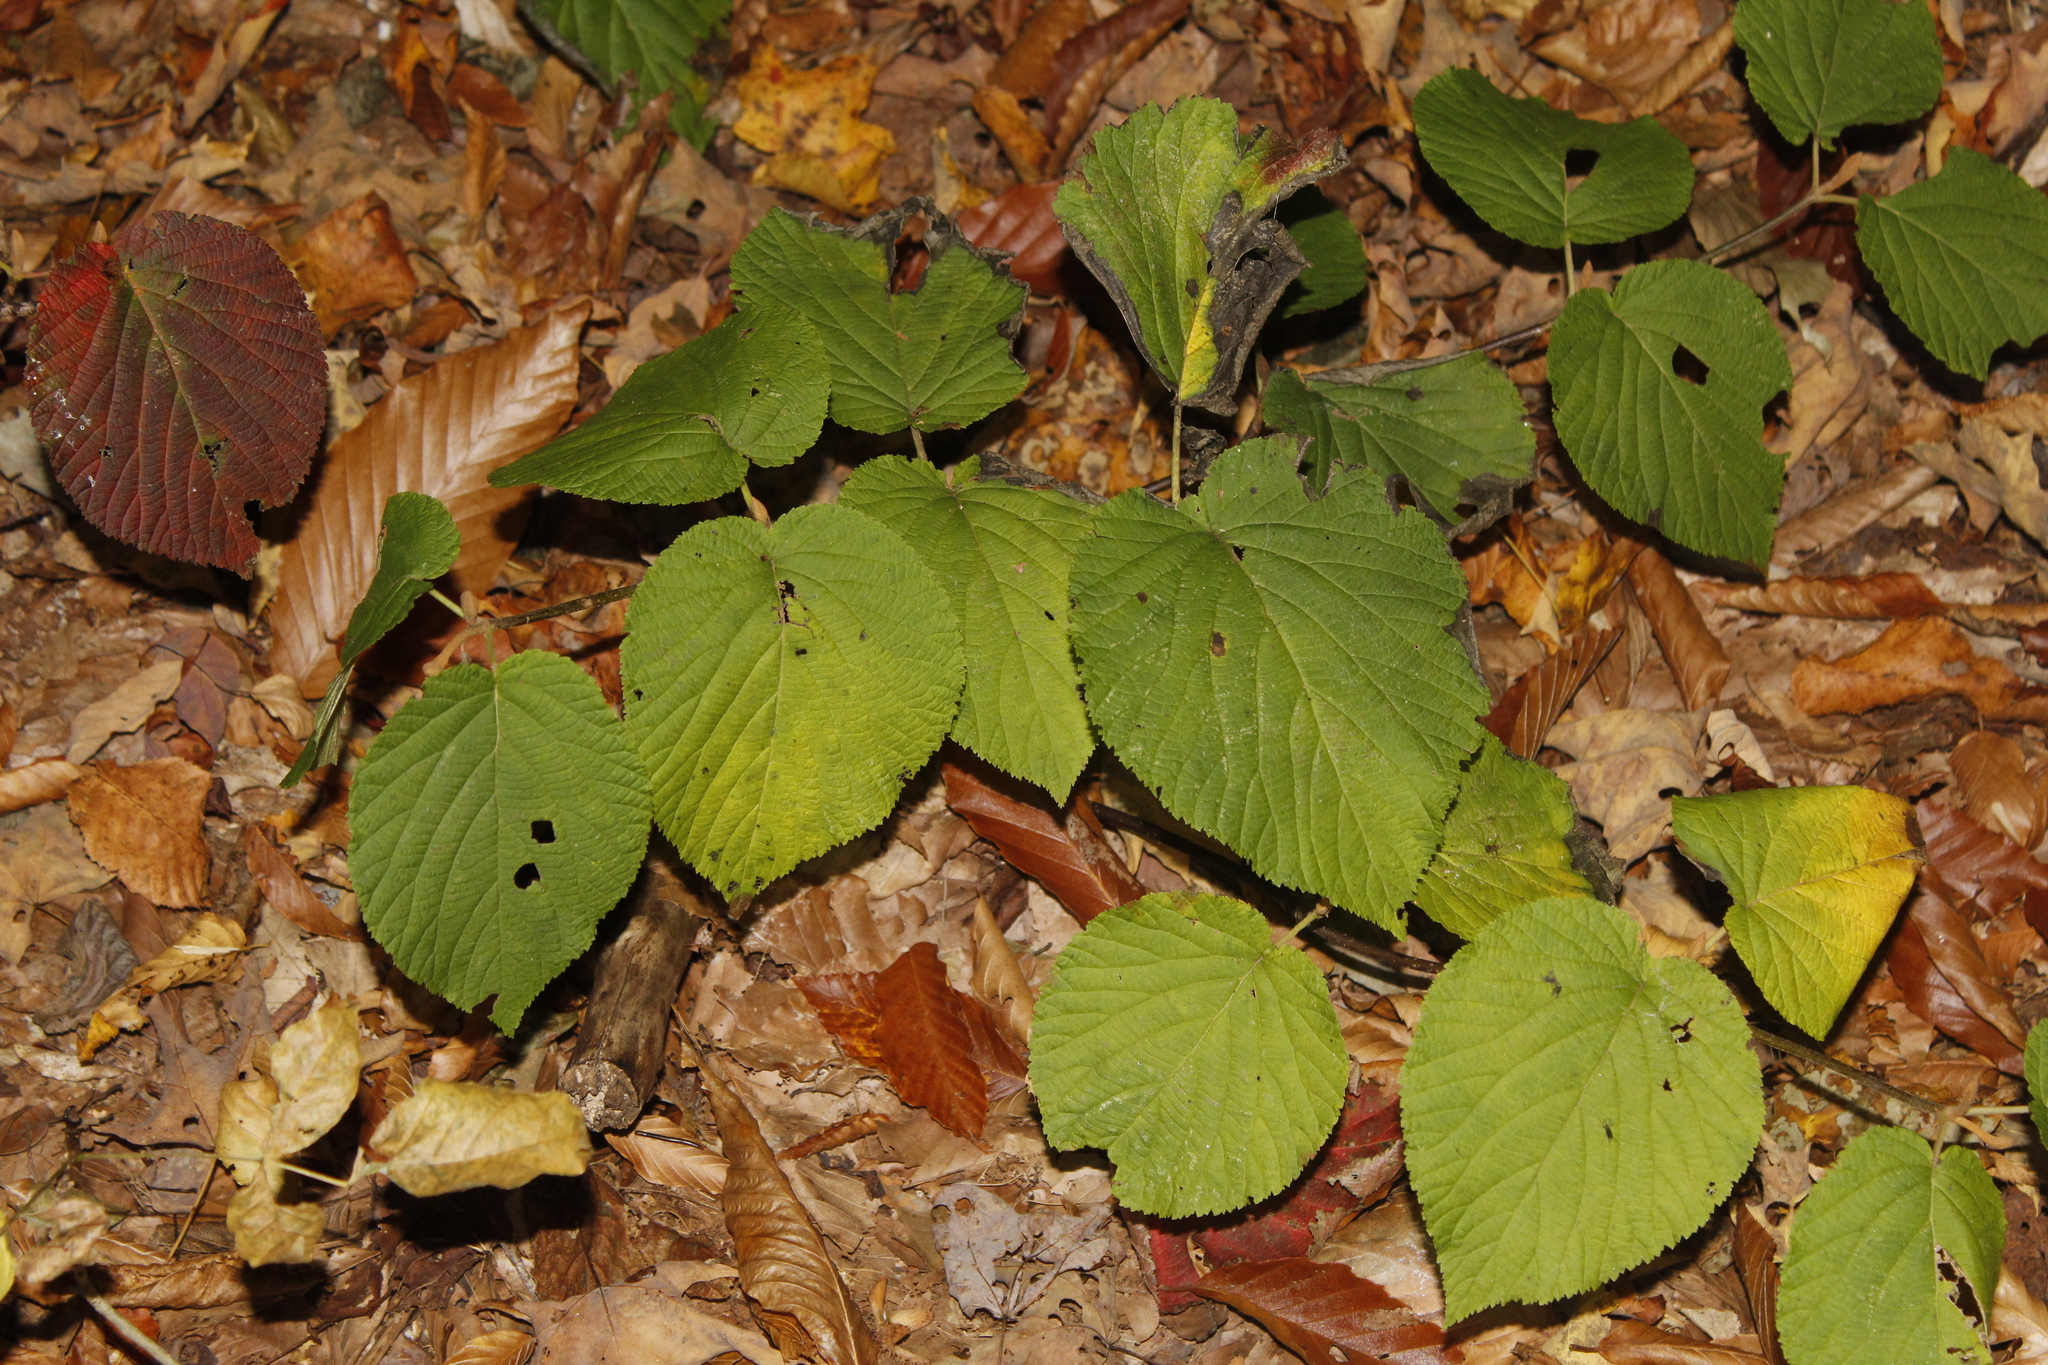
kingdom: Plantae
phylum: Tracheophyta
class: Magnoliopsida
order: Dipsacales
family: Viburnaceae
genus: Viburnum
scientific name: Viburnum lantanoides
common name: Hobblebush
